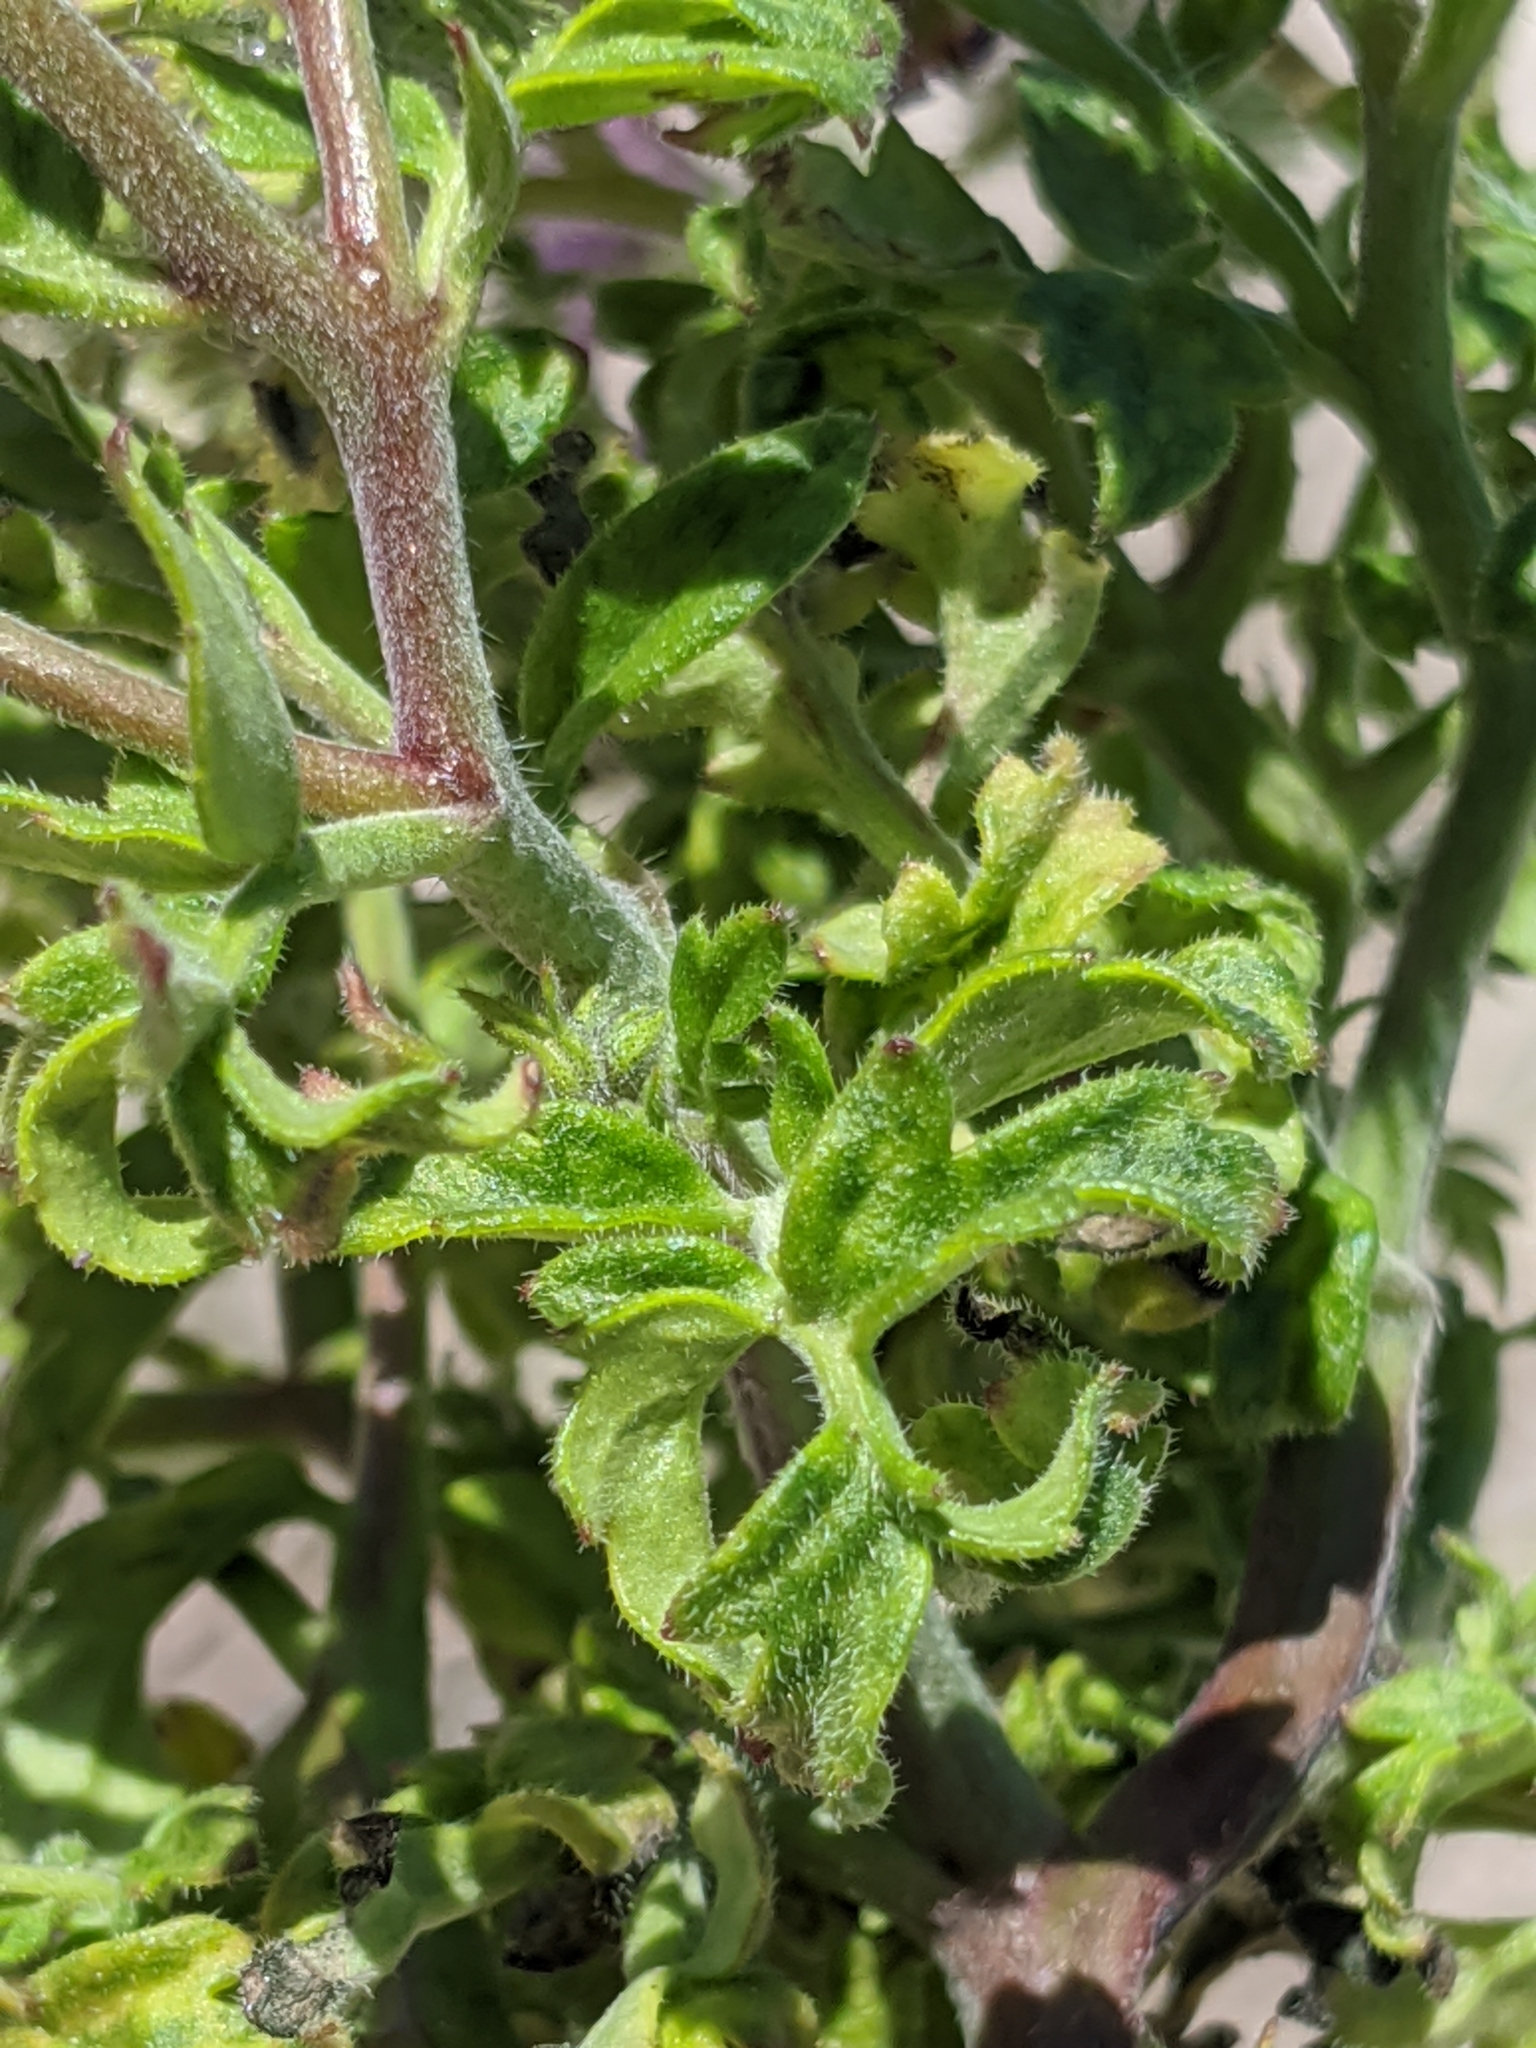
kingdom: Plantae
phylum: Tracheophyta
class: Magnoliopsida
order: Boraginales
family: Hydrophyllaceae
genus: Phacelia
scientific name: Phacelia crenulata
